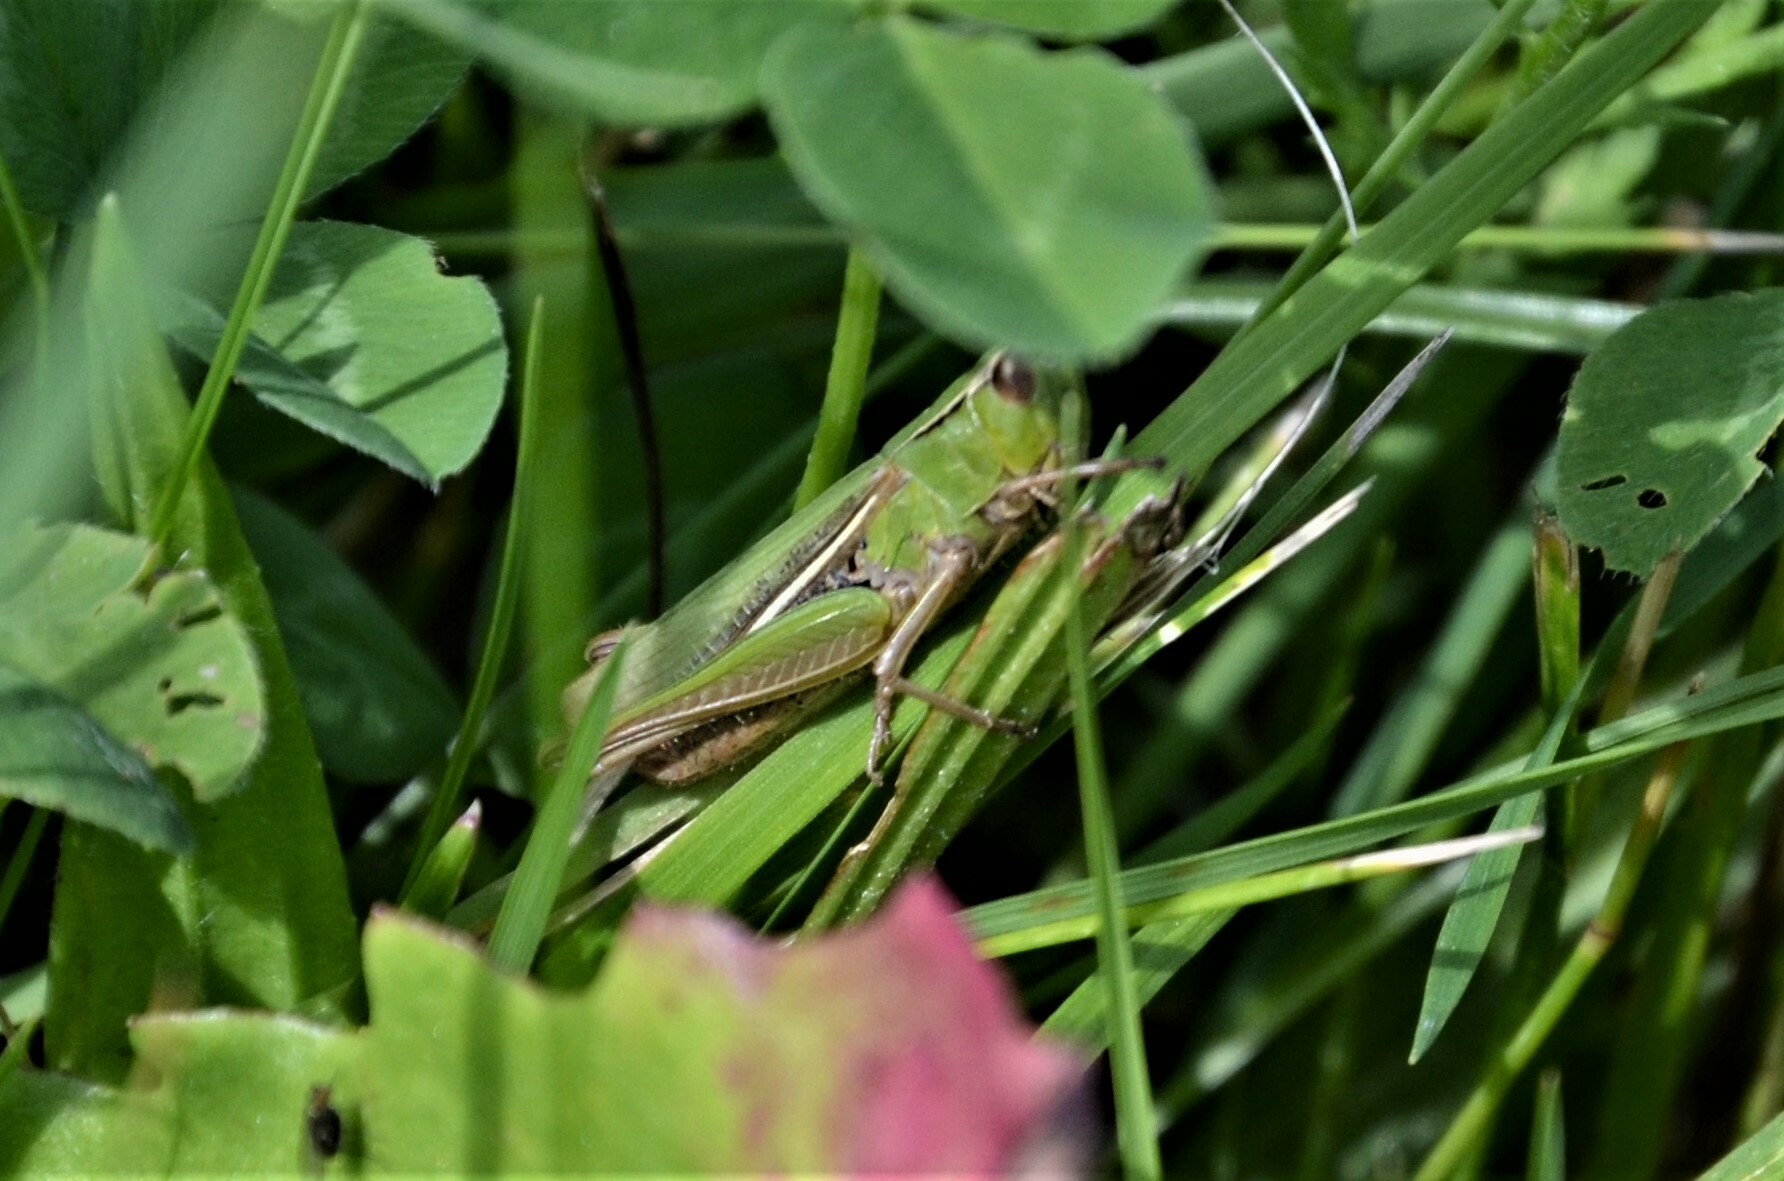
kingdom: Animalia
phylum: Arthropoda
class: Insecta
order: Orthoptera
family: Acrididae
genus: Chorthippus
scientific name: Chorthippus albomarginatus
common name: Lesser marsh grasshopper
